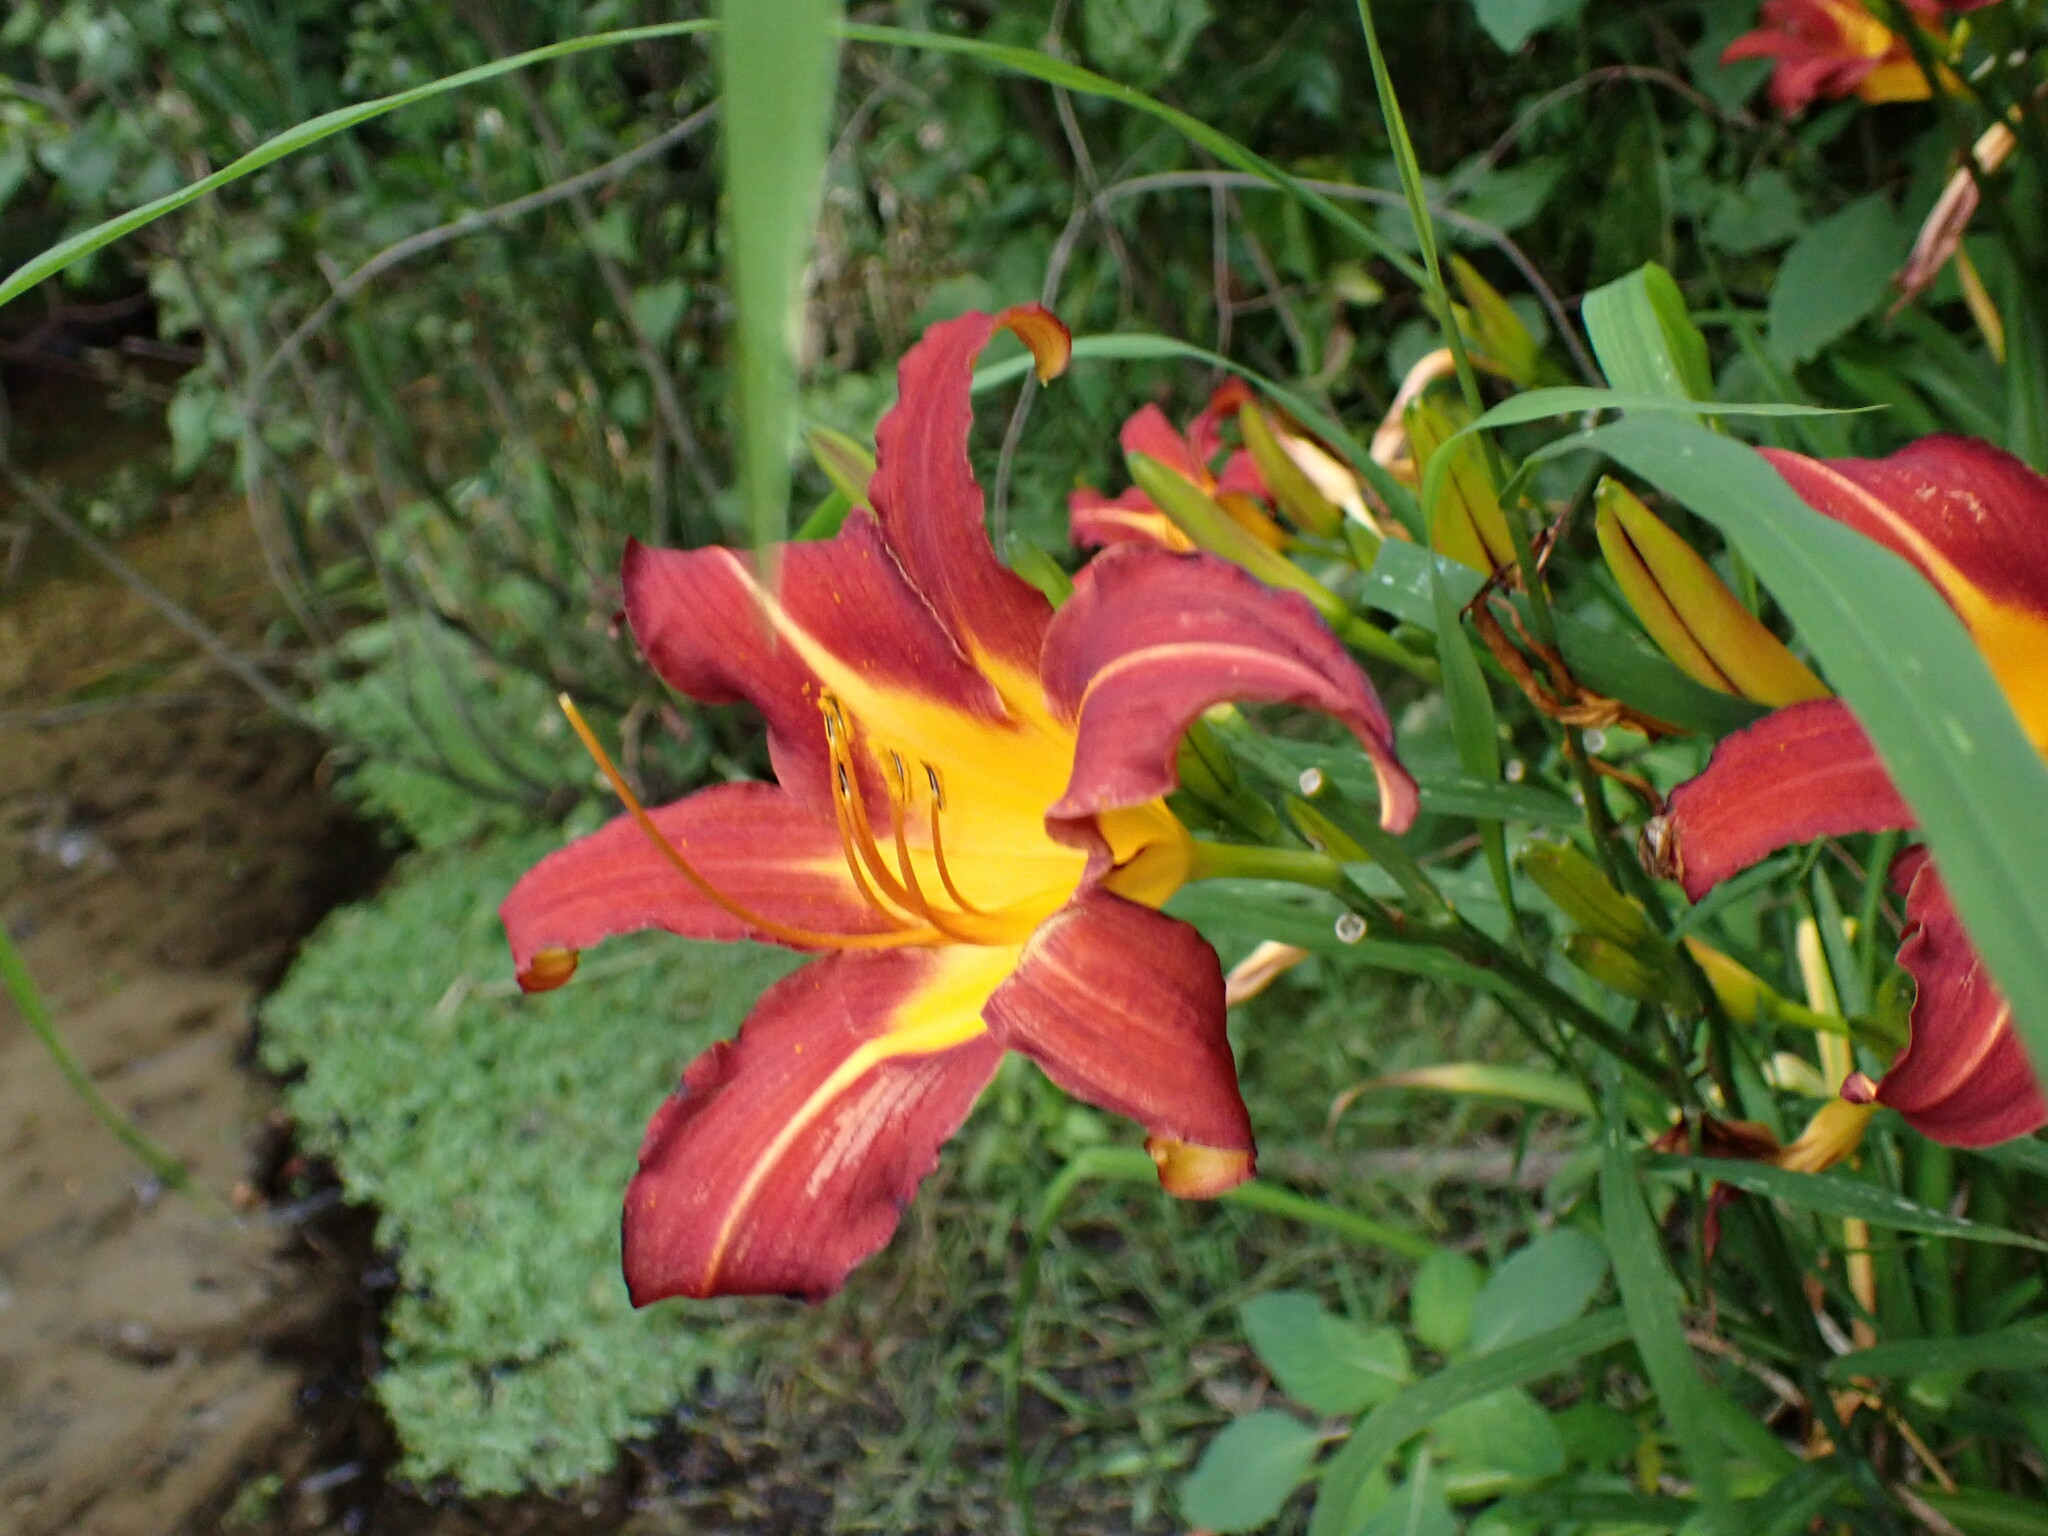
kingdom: Plantae
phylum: Tracheophyta
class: Liliopsida
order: Asparagales
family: Asphodelaceae
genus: Hemerocallis
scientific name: Hemerocallis fulva
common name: Orange day-lily
